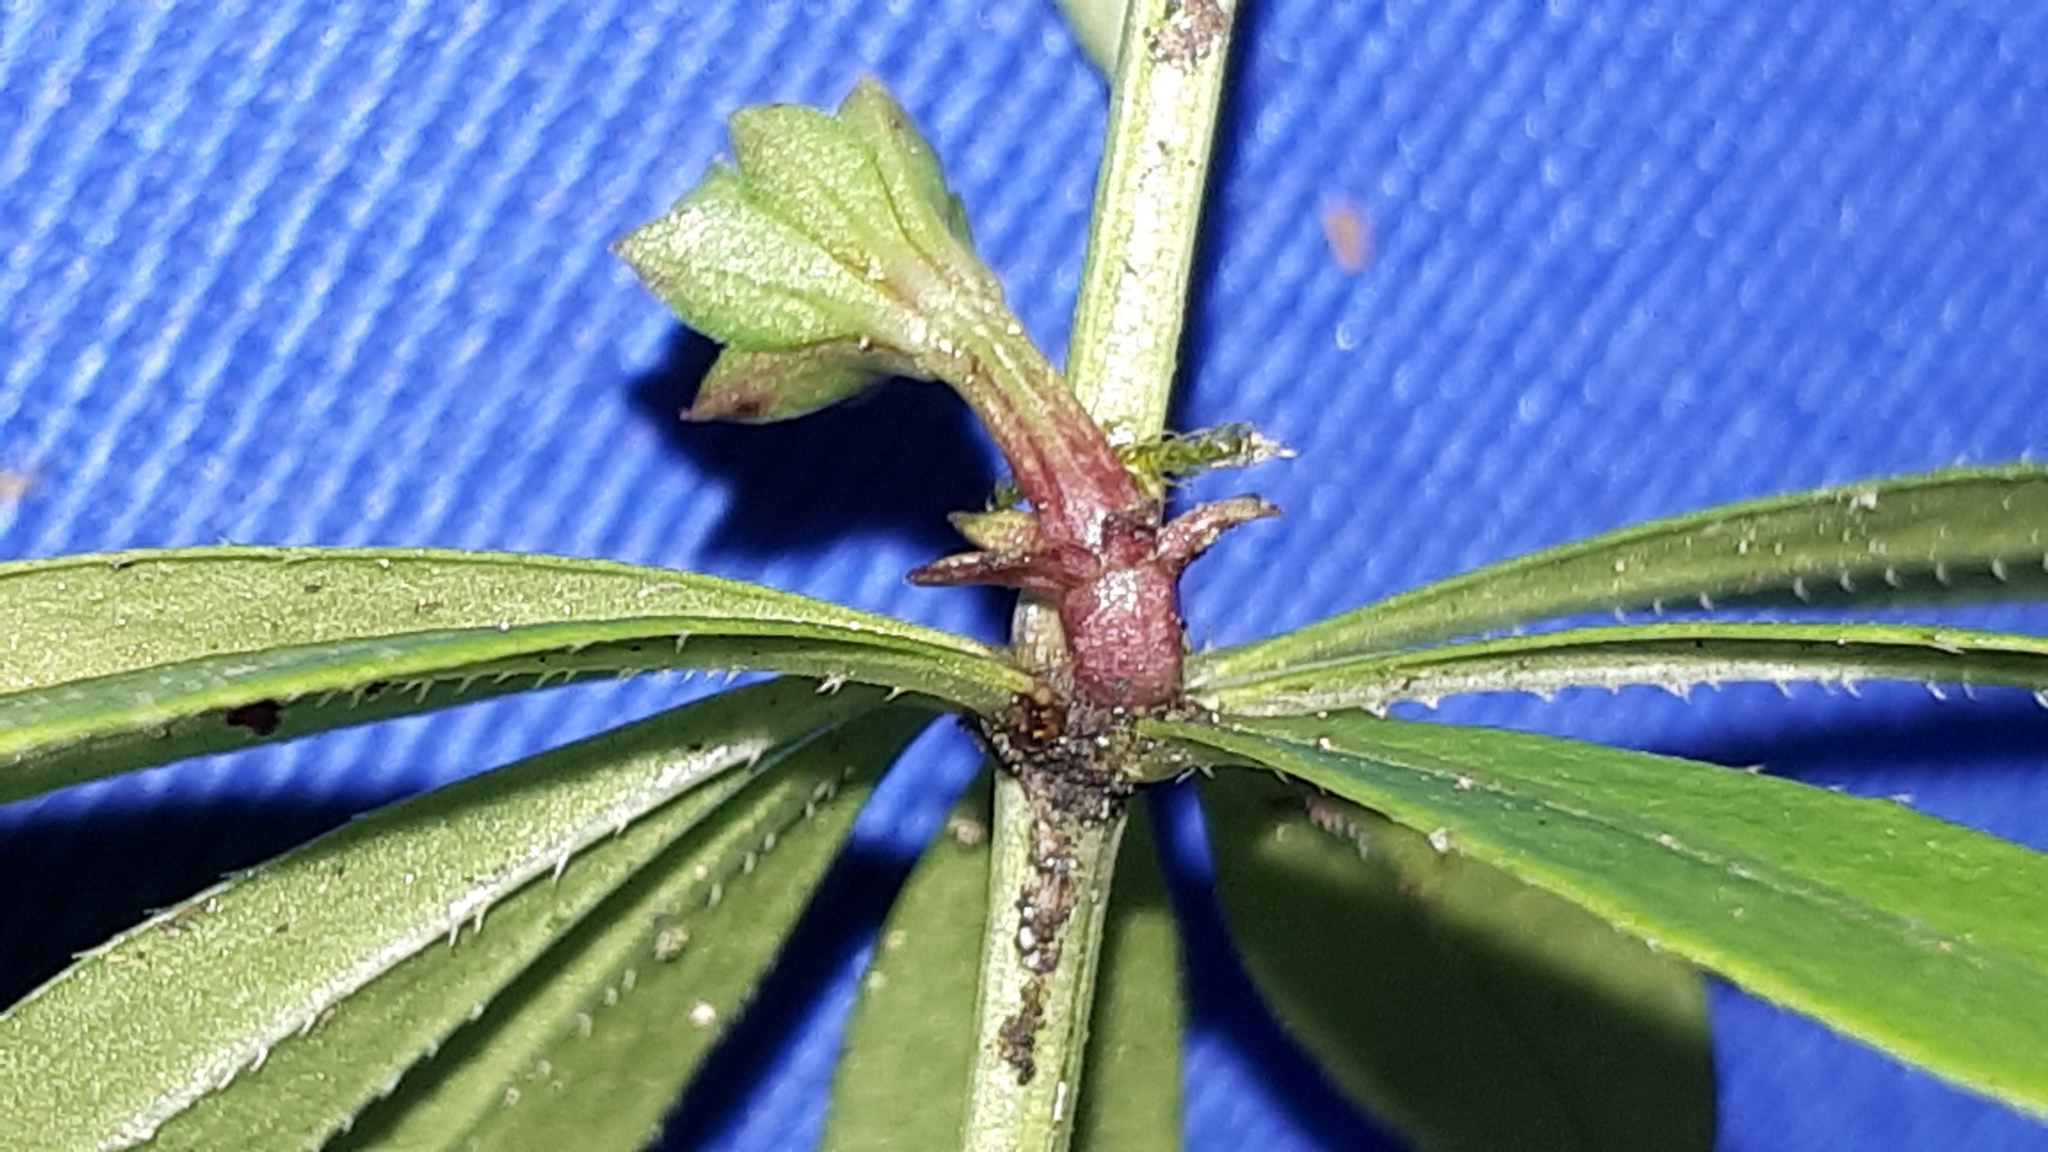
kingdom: Plantae
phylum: Tracheophyta
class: Magnoliopsida
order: Gentianales
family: Rubiaceae
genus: Galium
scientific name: Galium odoratum
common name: Sweet woodruff
